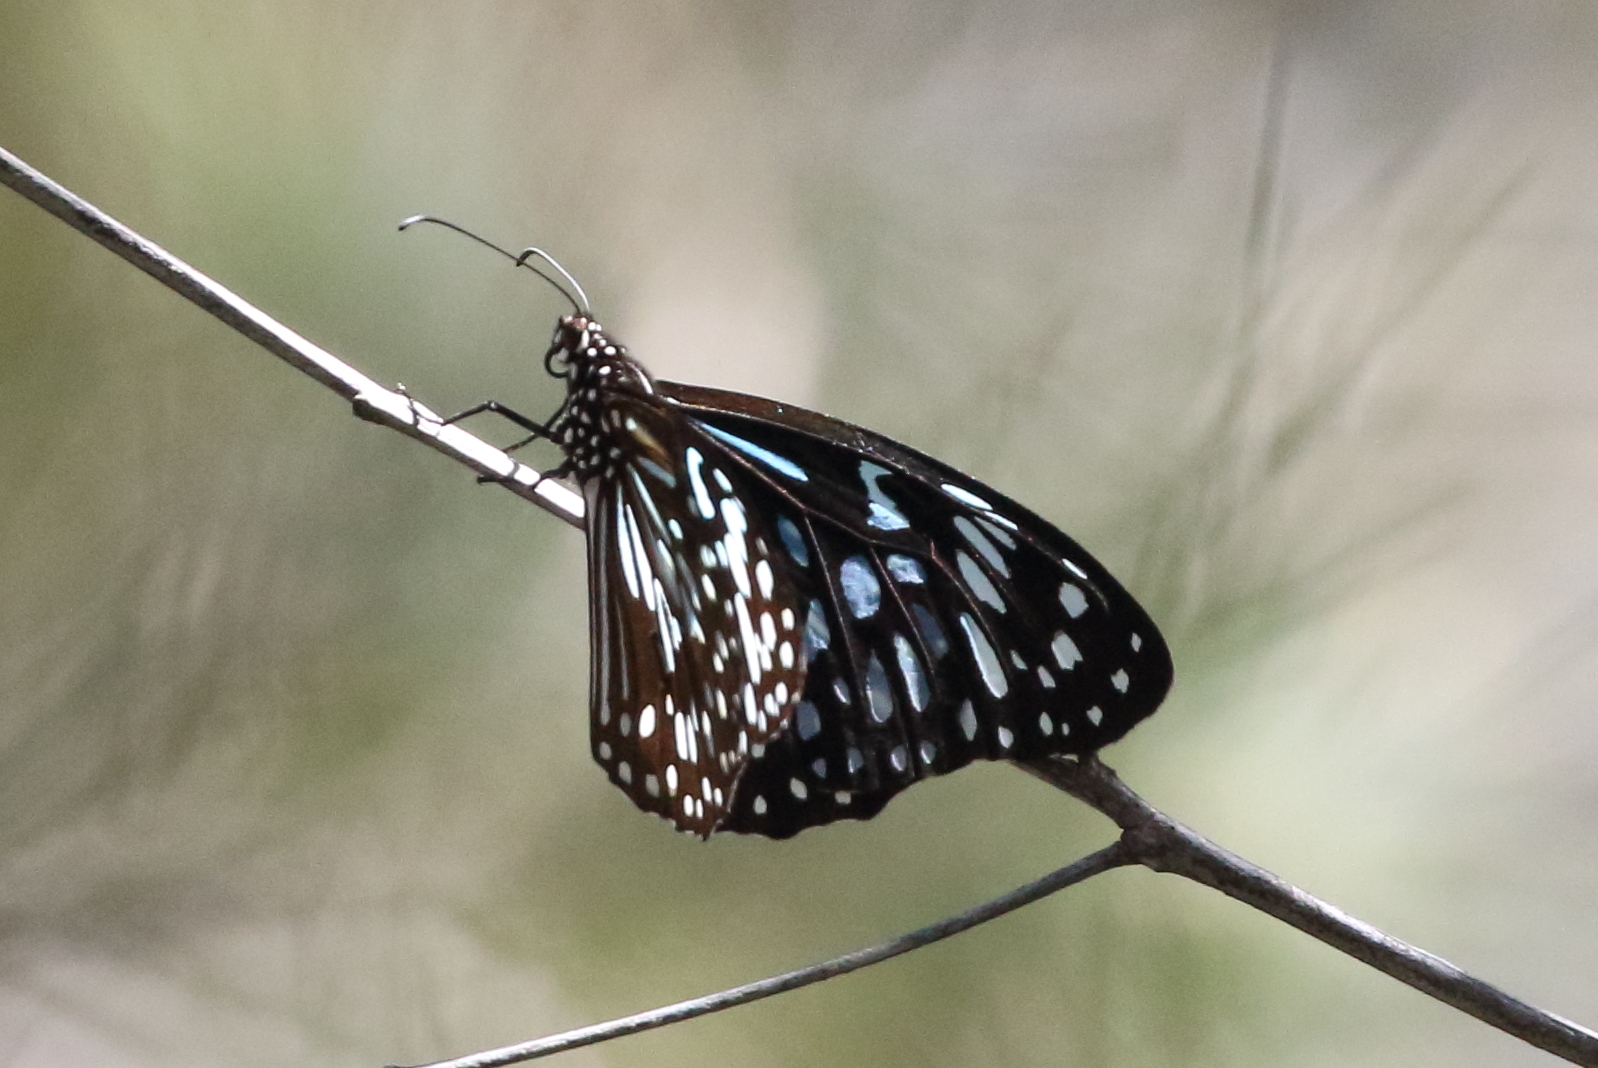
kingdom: Animalia
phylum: Arthropoda
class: Insecta
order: Lepidoptera
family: Nymphalidae
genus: Tirumala
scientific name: Tirumala hamata
